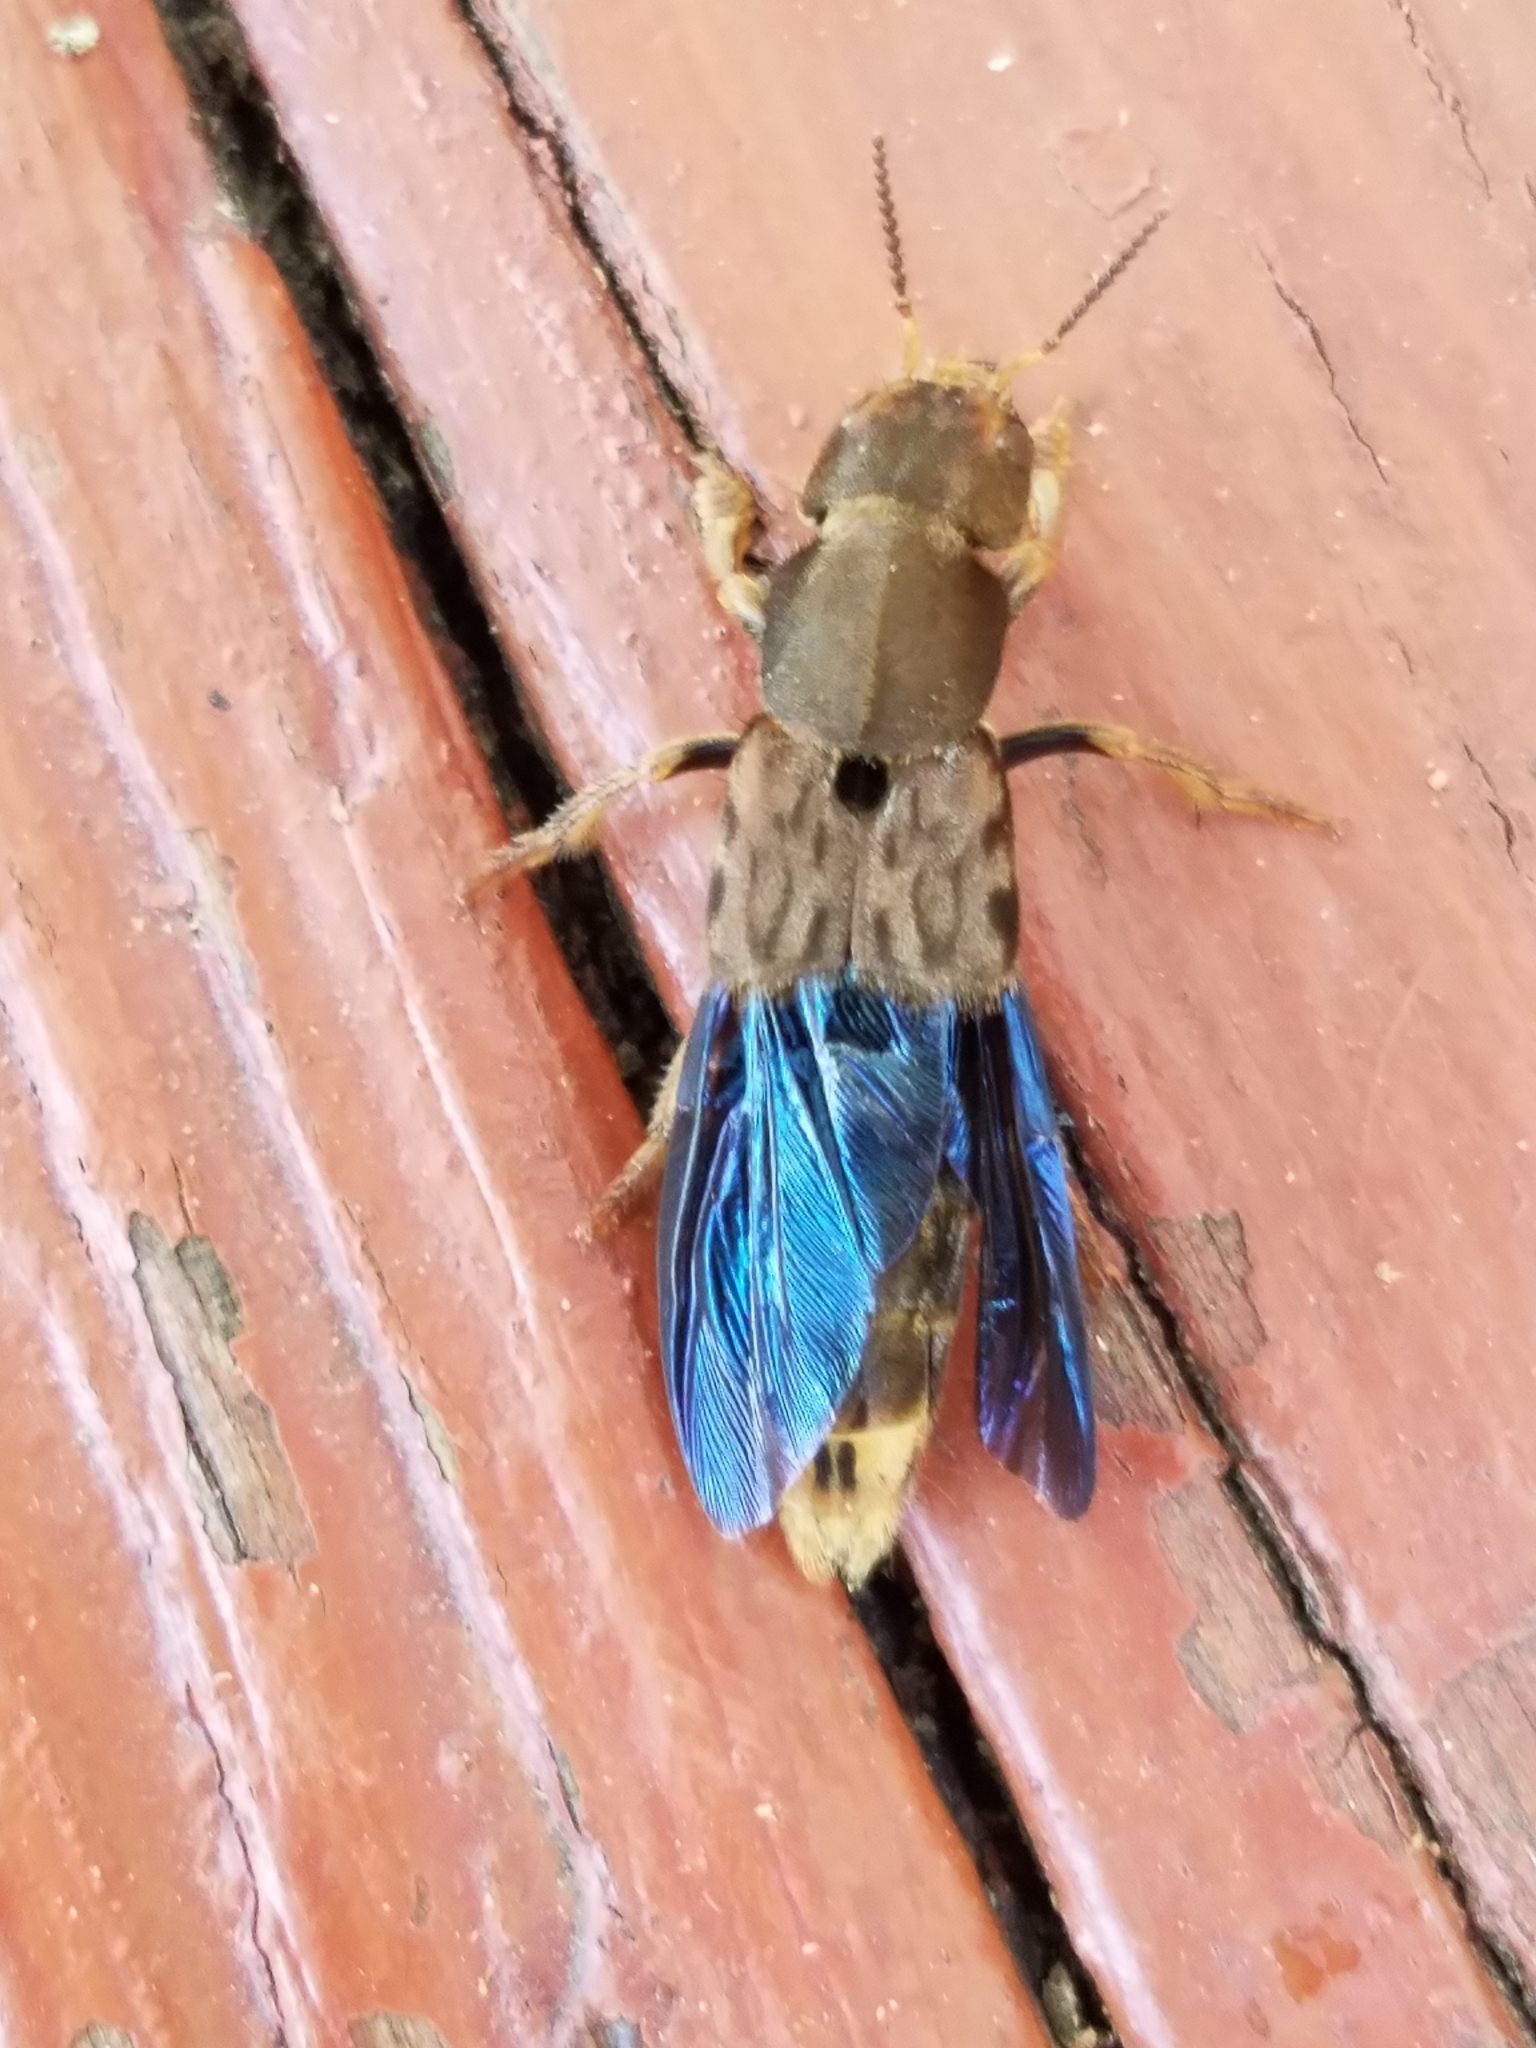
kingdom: Animalia
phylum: Arthropoda
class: Insecta
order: Coleoptera
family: Staphylinidae
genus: Platydracus
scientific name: Platydracus maculosus
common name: Brown rove beetle
